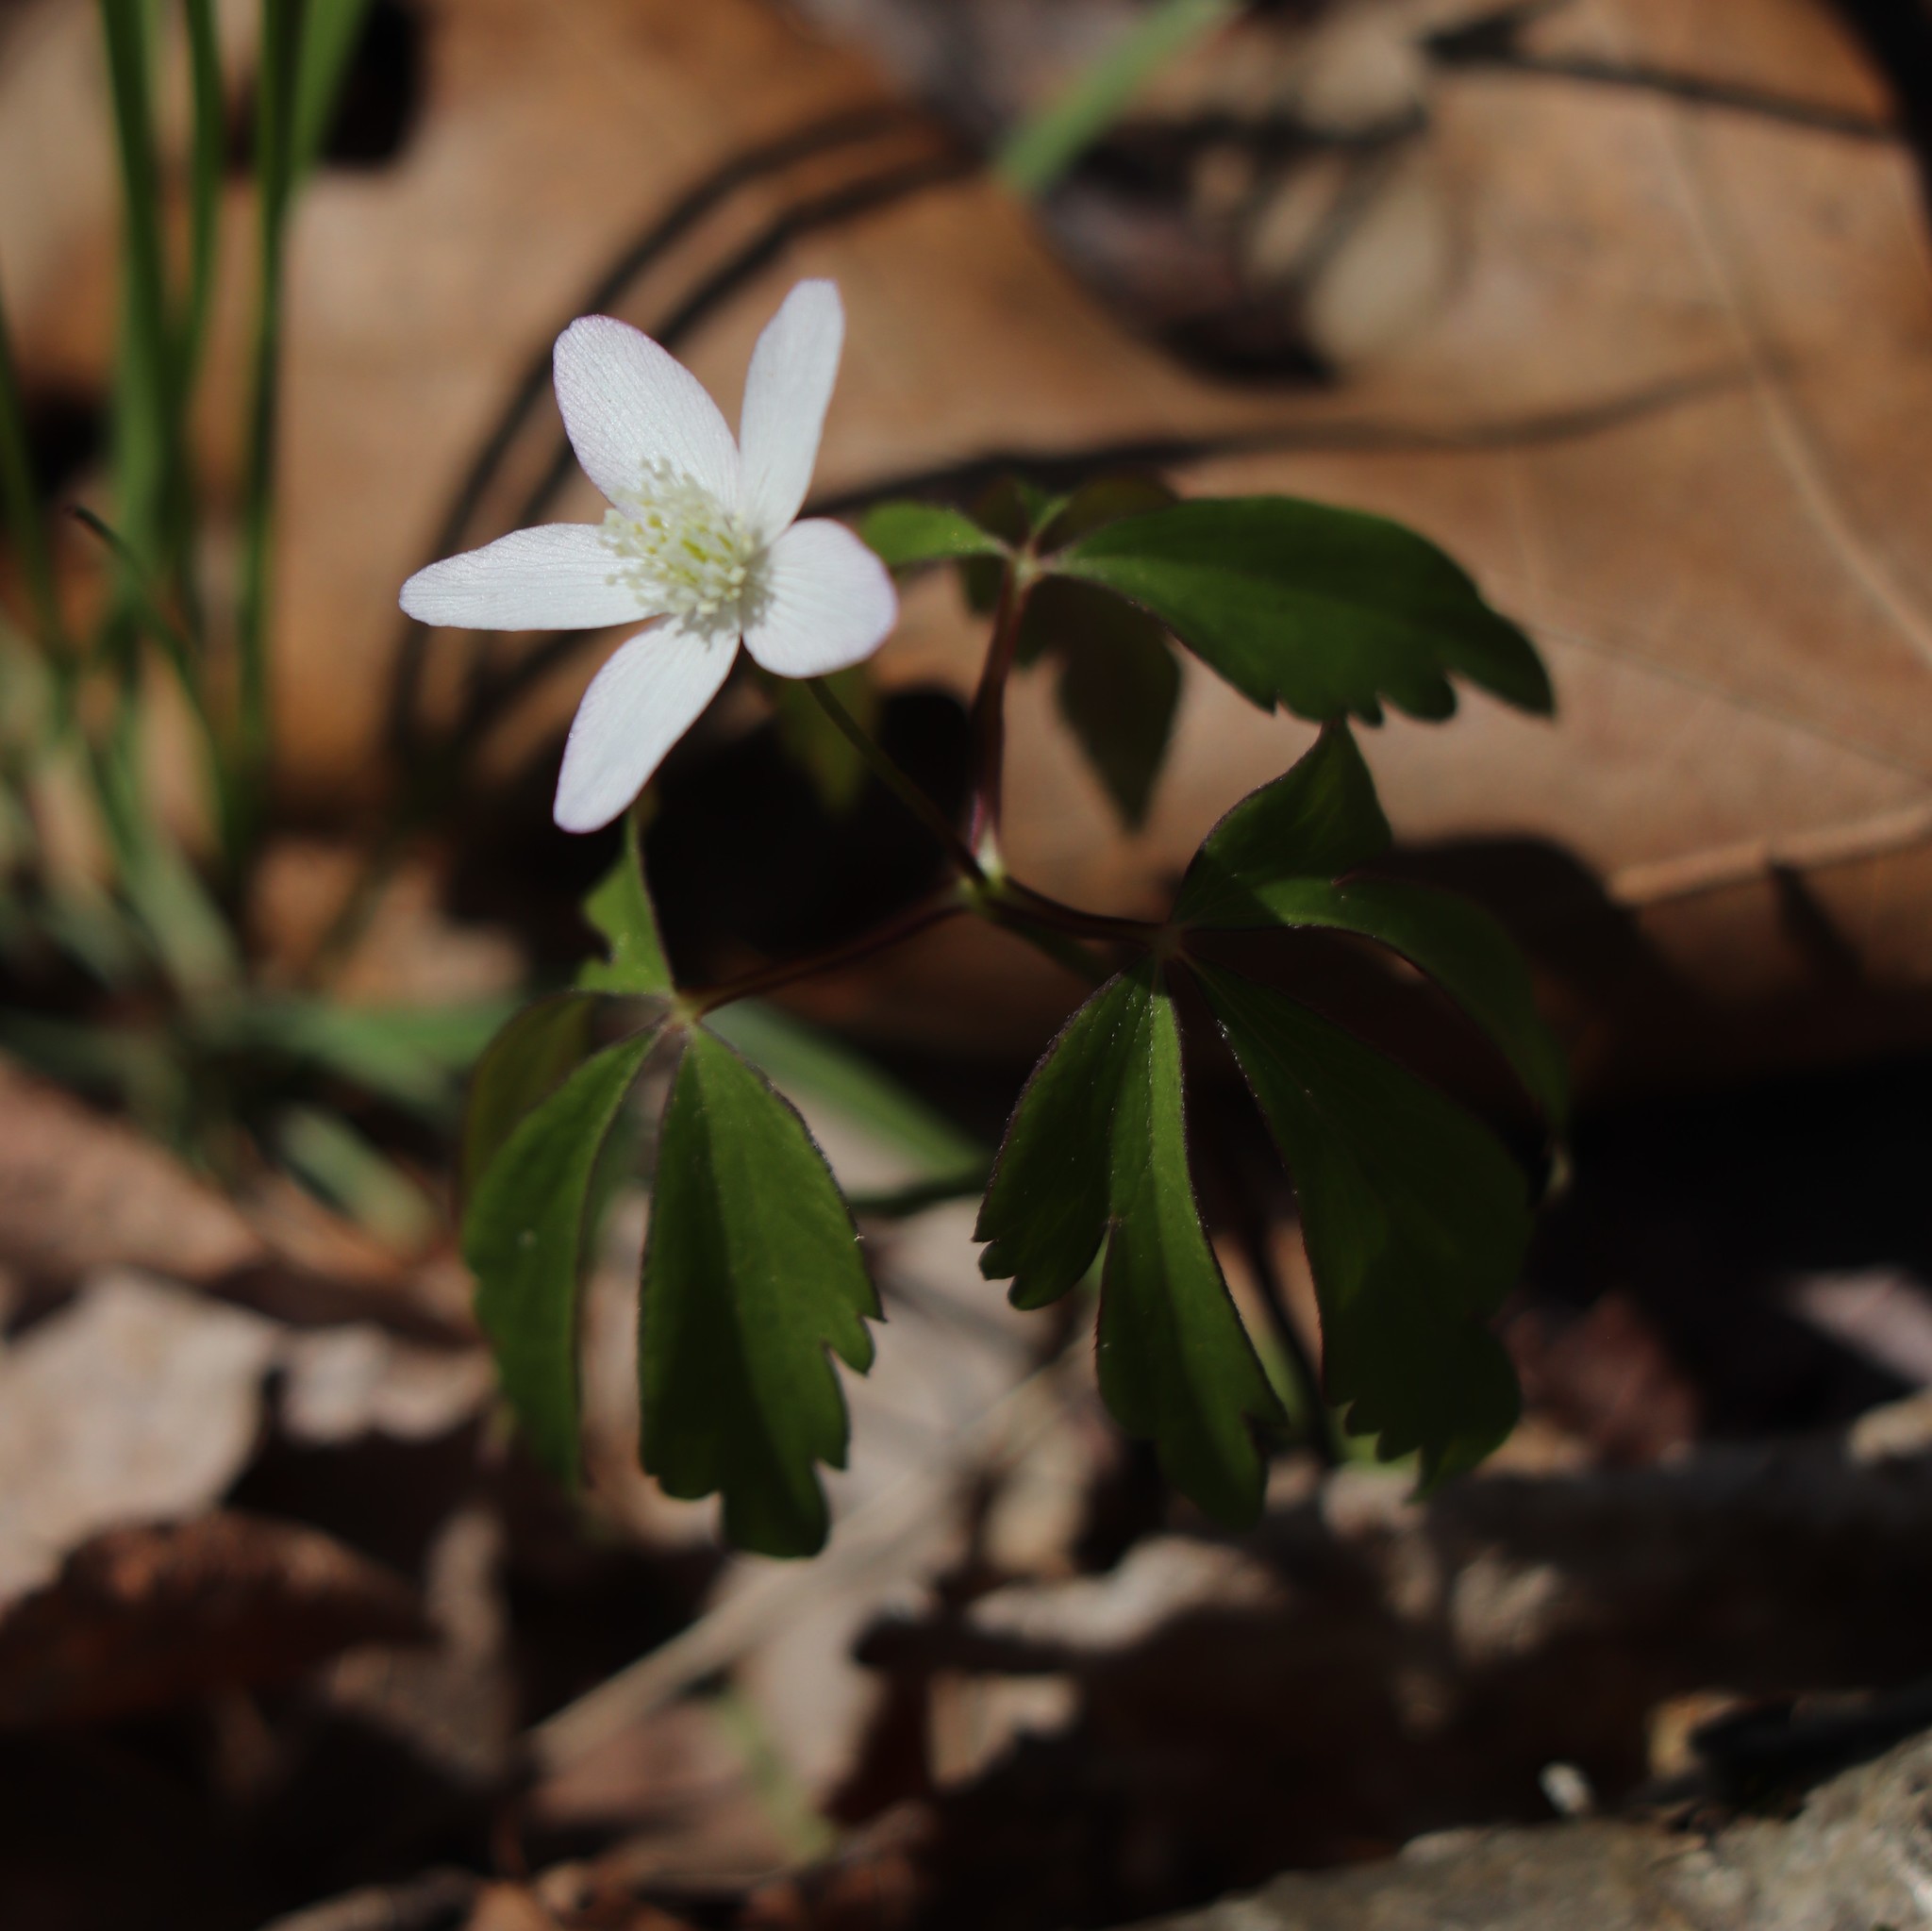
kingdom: Plantae
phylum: Tracheophyta
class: Magnoliopsida
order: Ranunculales
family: Ranunculaceae
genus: Anemone
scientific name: Anemone quinquefolia
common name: Wood anemone
